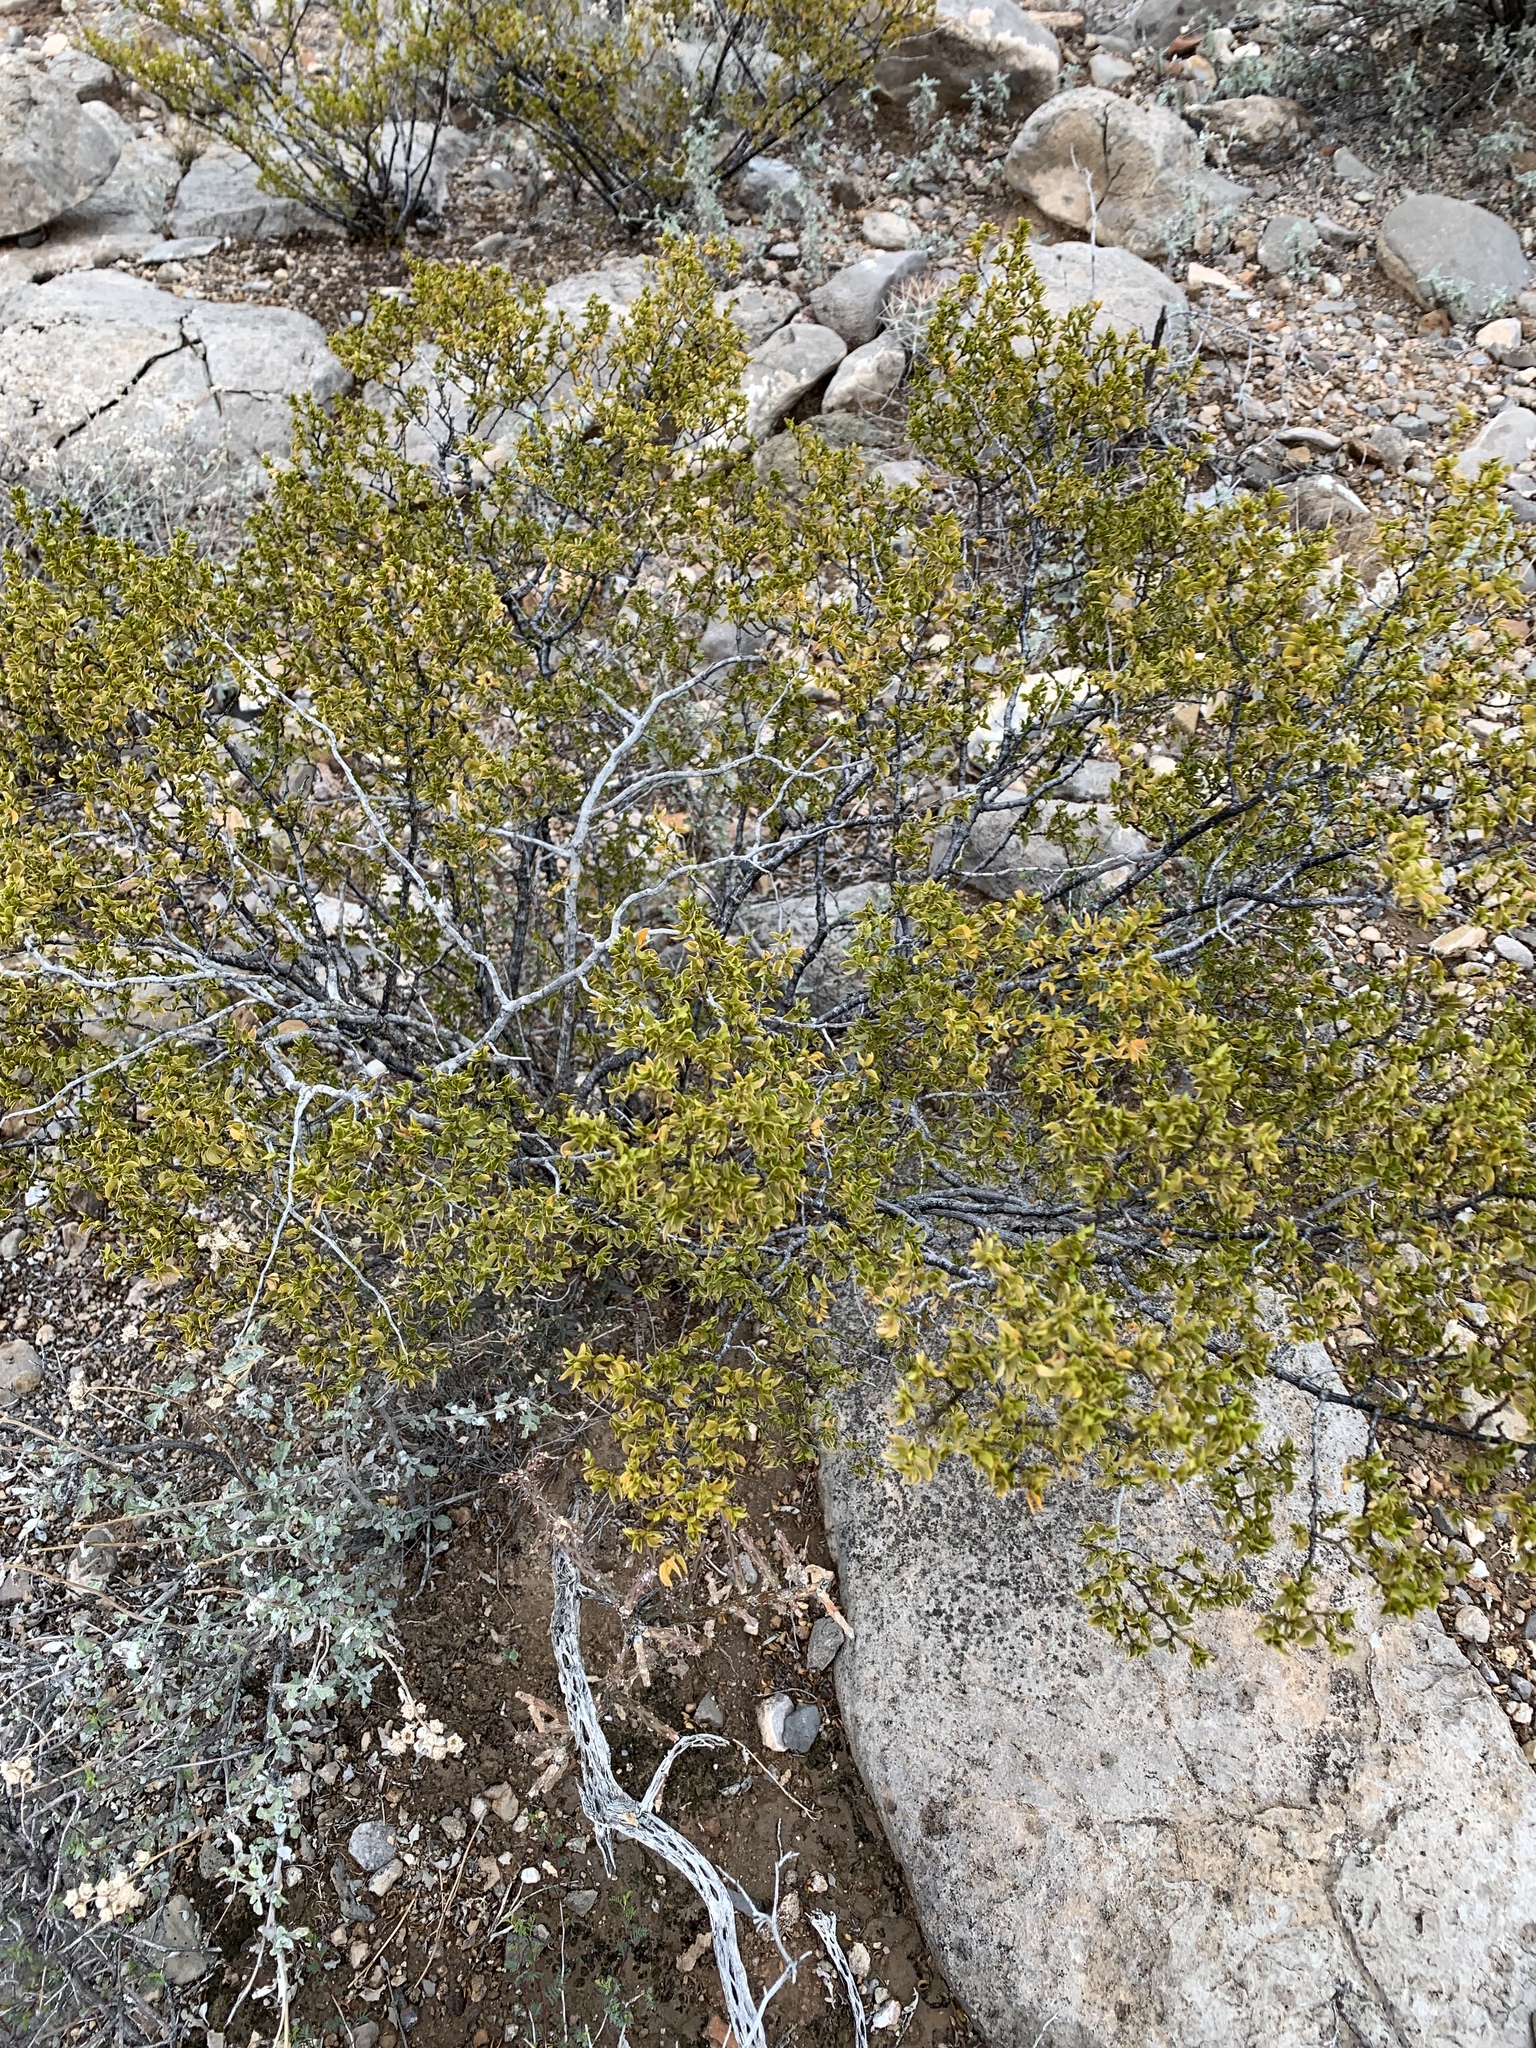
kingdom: Plantae
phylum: Tracheophyta
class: Magnoliopsida
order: Zygophyllales
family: Zygophyllaceae
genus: Larrea
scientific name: Larrea tridentata
